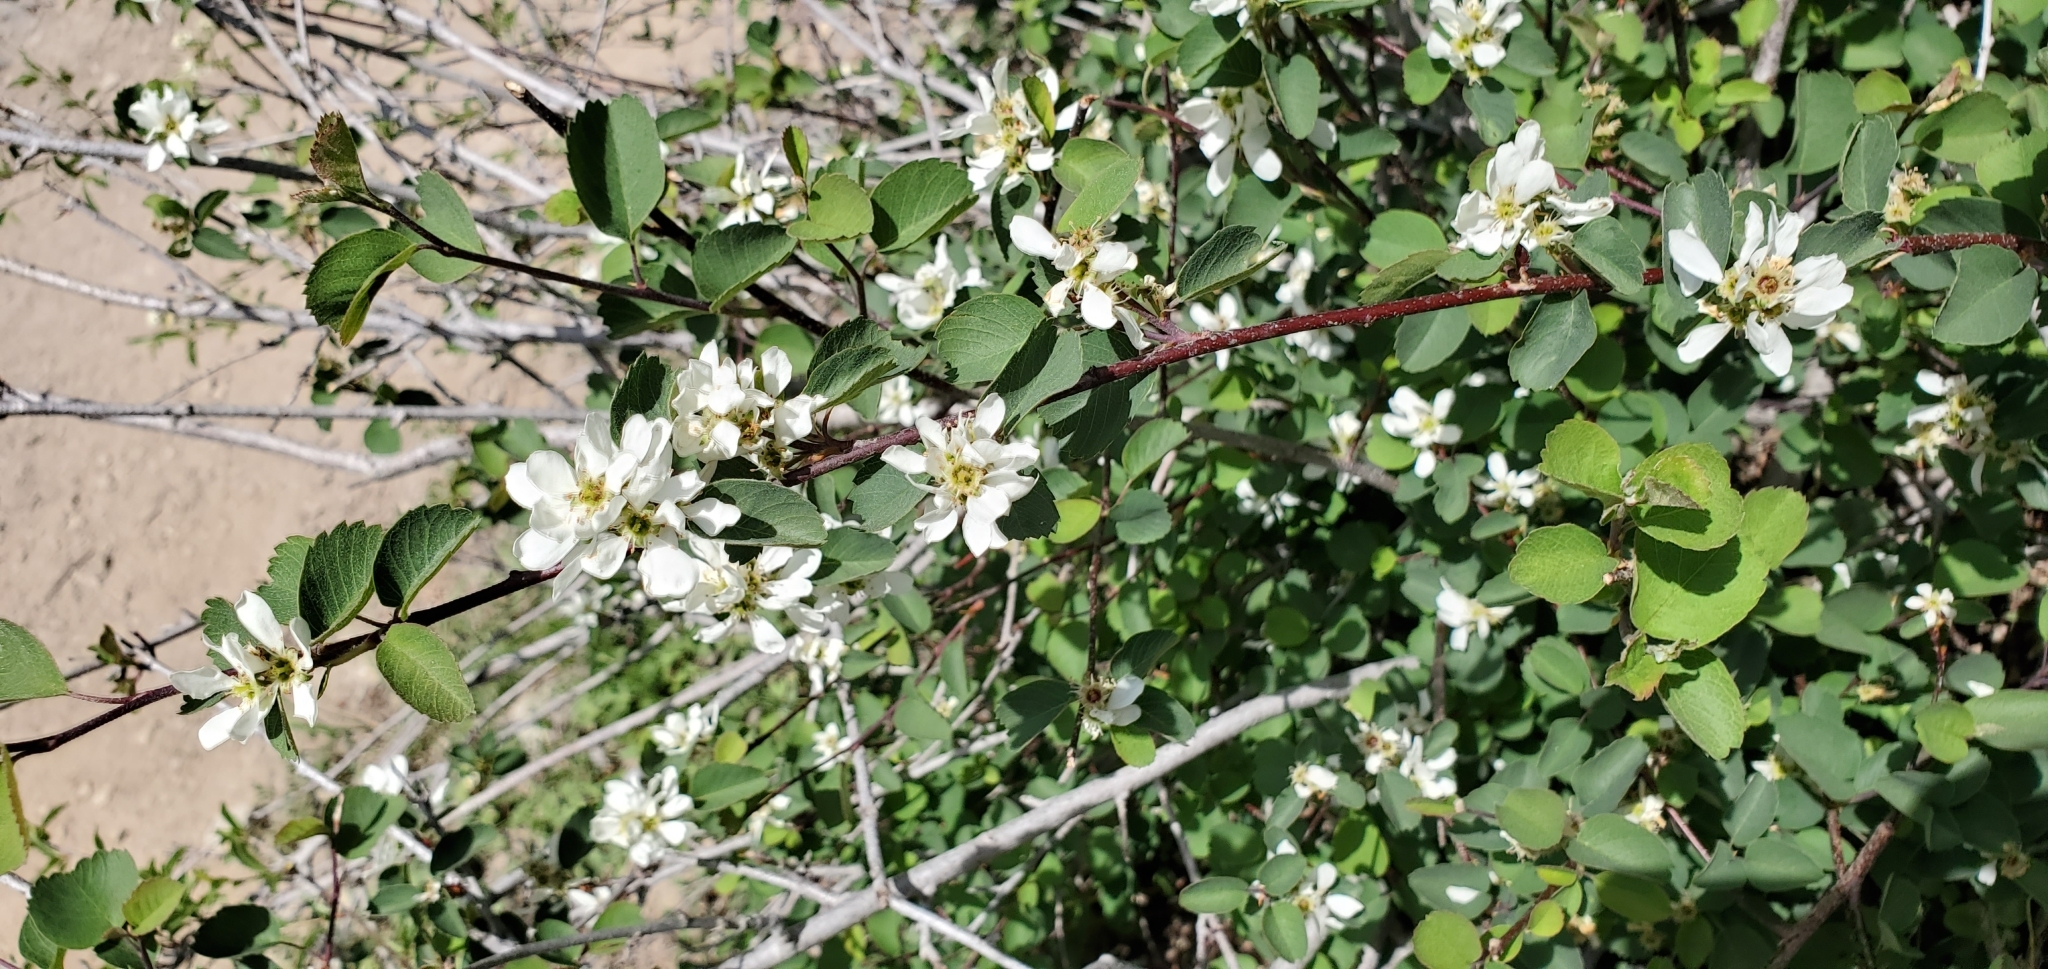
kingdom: Plantae
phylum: Tracheophyta
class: Magnoliopsida
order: Rosales
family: Rosaceae
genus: Amelanchier
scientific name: Amelanchier utahensis
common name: Utah serviceberry
